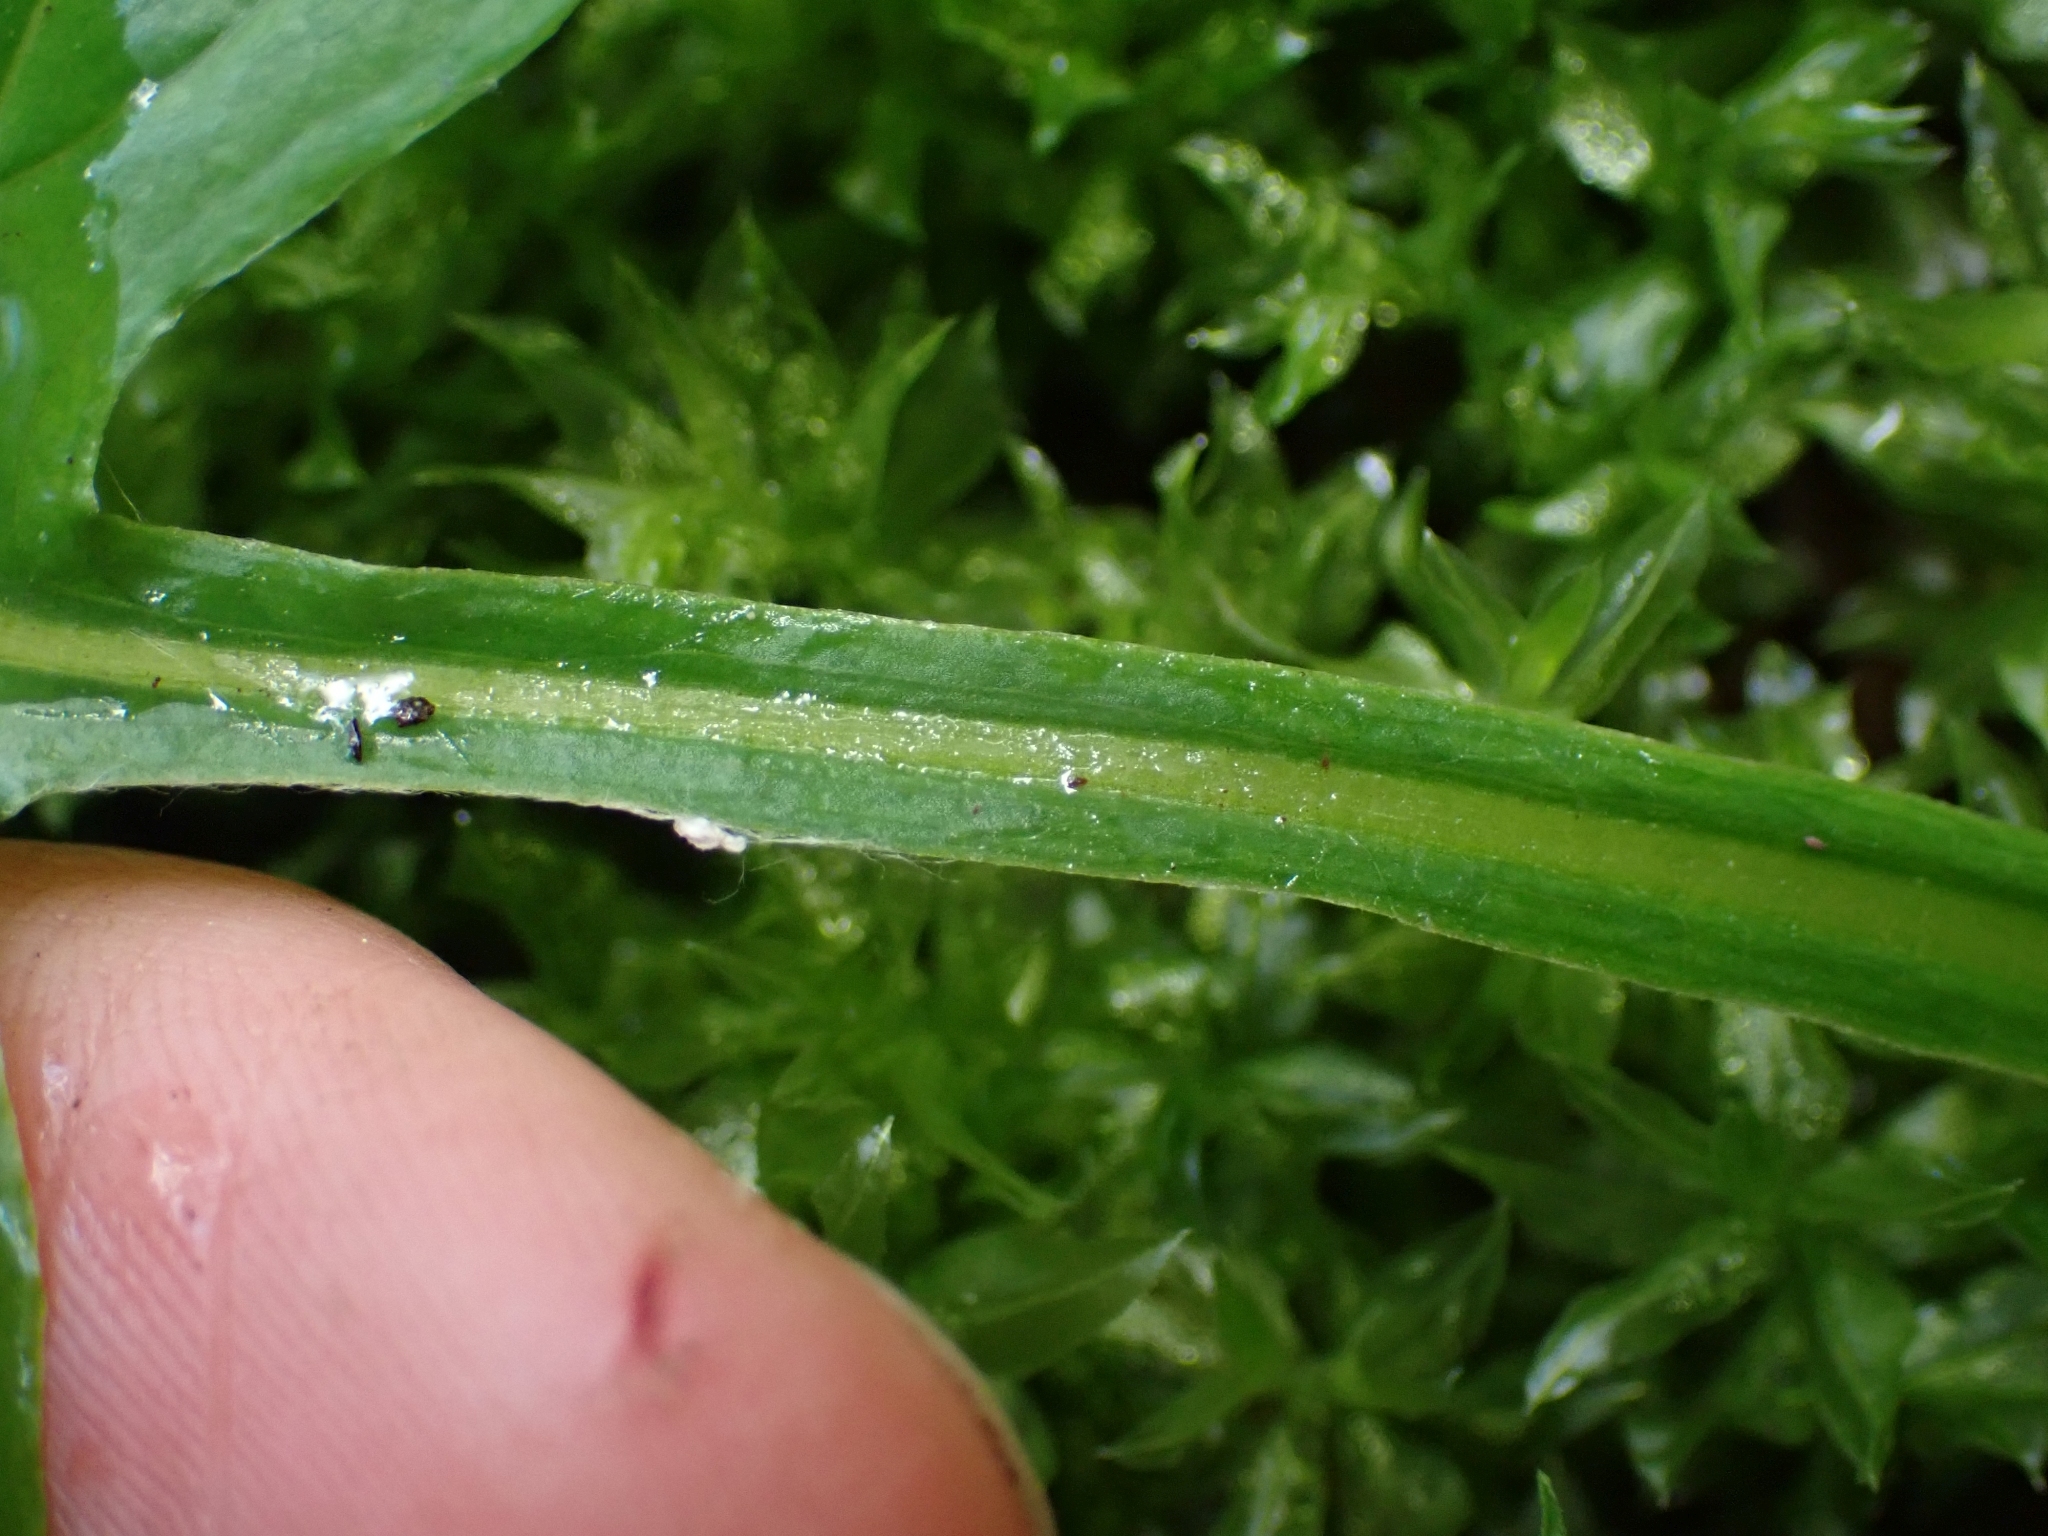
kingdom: Plantae
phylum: Tracheophyta
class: Magnoliopsida
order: Asterales
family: Asteraceae
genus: Adenocaulon
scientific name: Adenocaulon bicolor
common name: Trailplant
